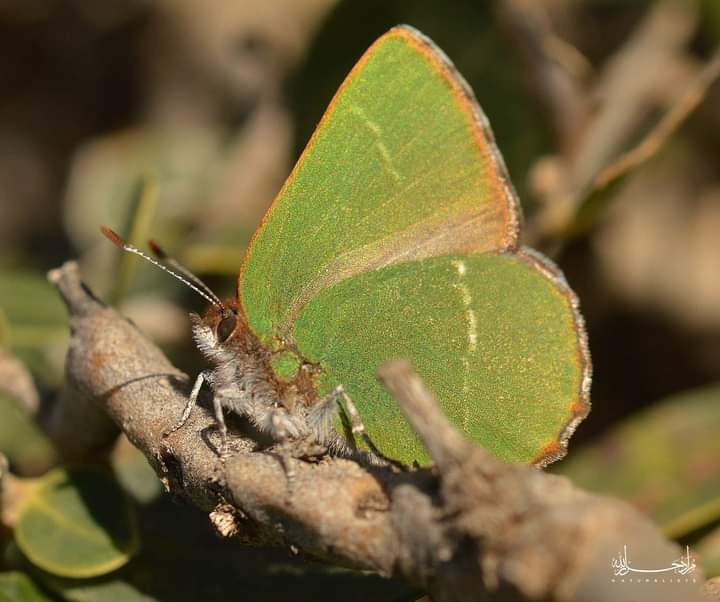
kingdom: Animalia
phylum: Arthropoda
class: Insecta
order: Lepidoptera
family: Lycaenidae
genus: Callophrys
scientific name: Callophrys avis
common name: Chapman's green hairstreak
